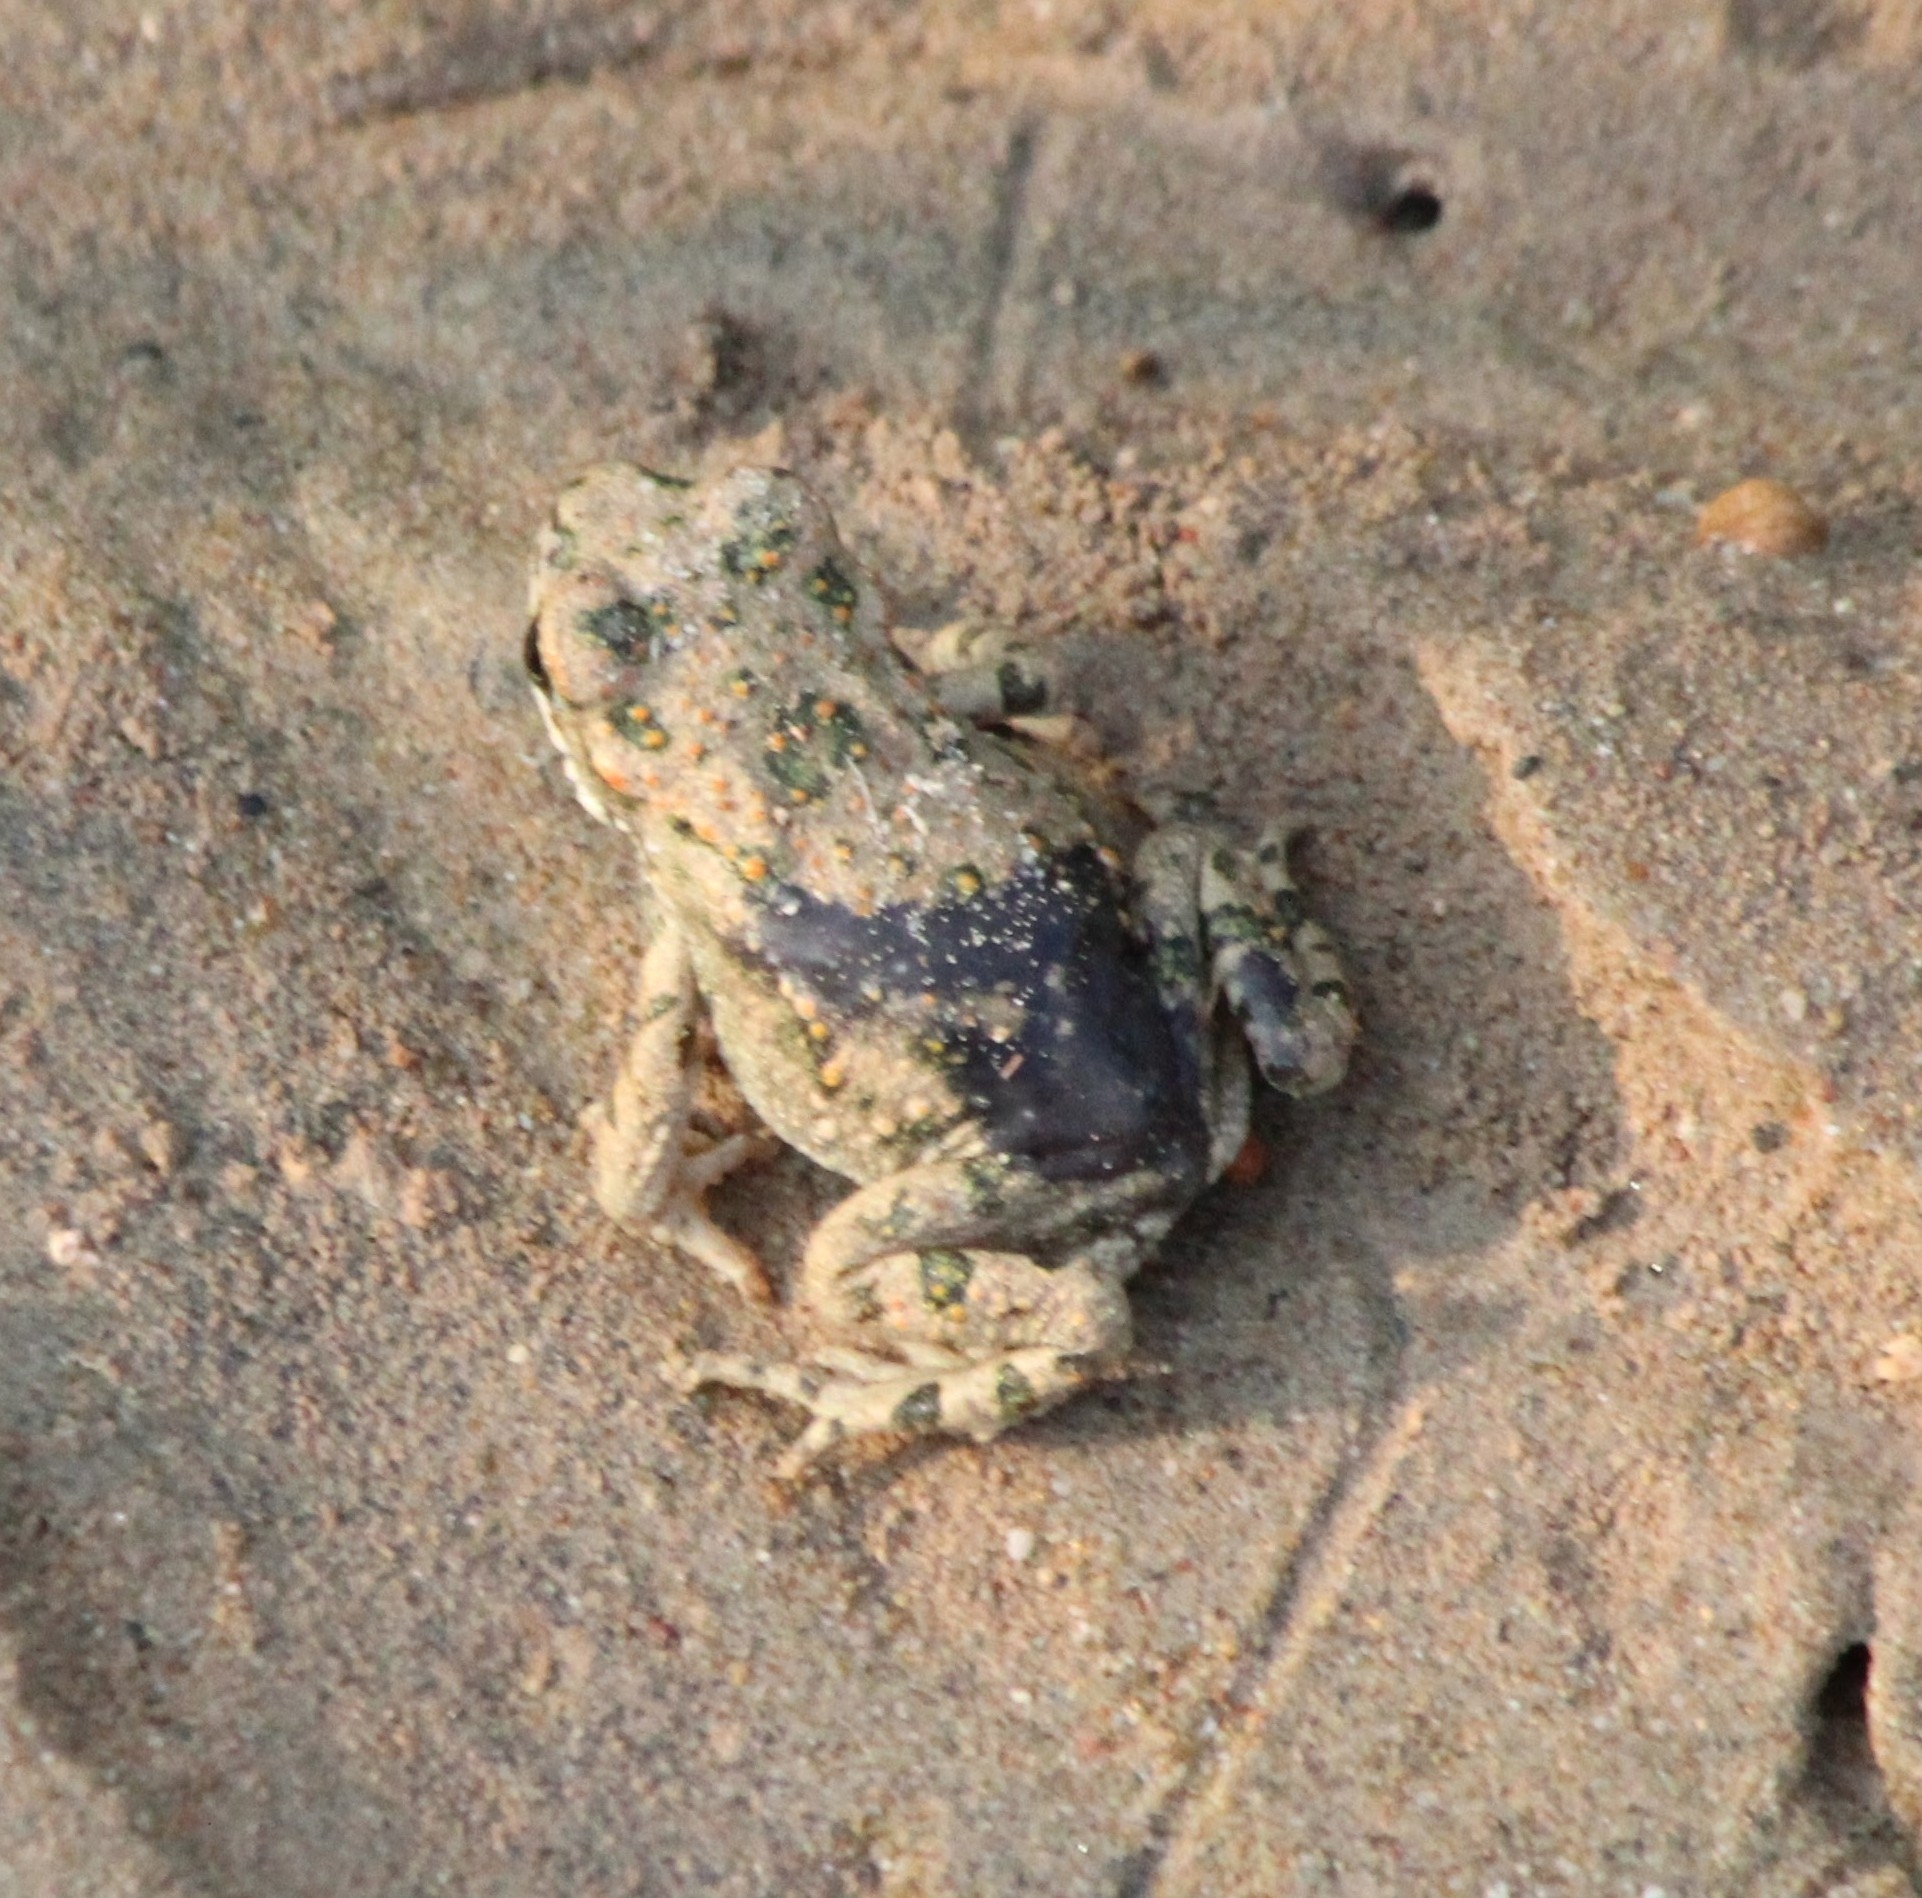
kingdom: Animalia
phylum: Chordata
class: Amphibia
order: Anura
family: Bufonidae
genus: Bufotes
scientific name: Bufotes viridis
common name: European green toad
